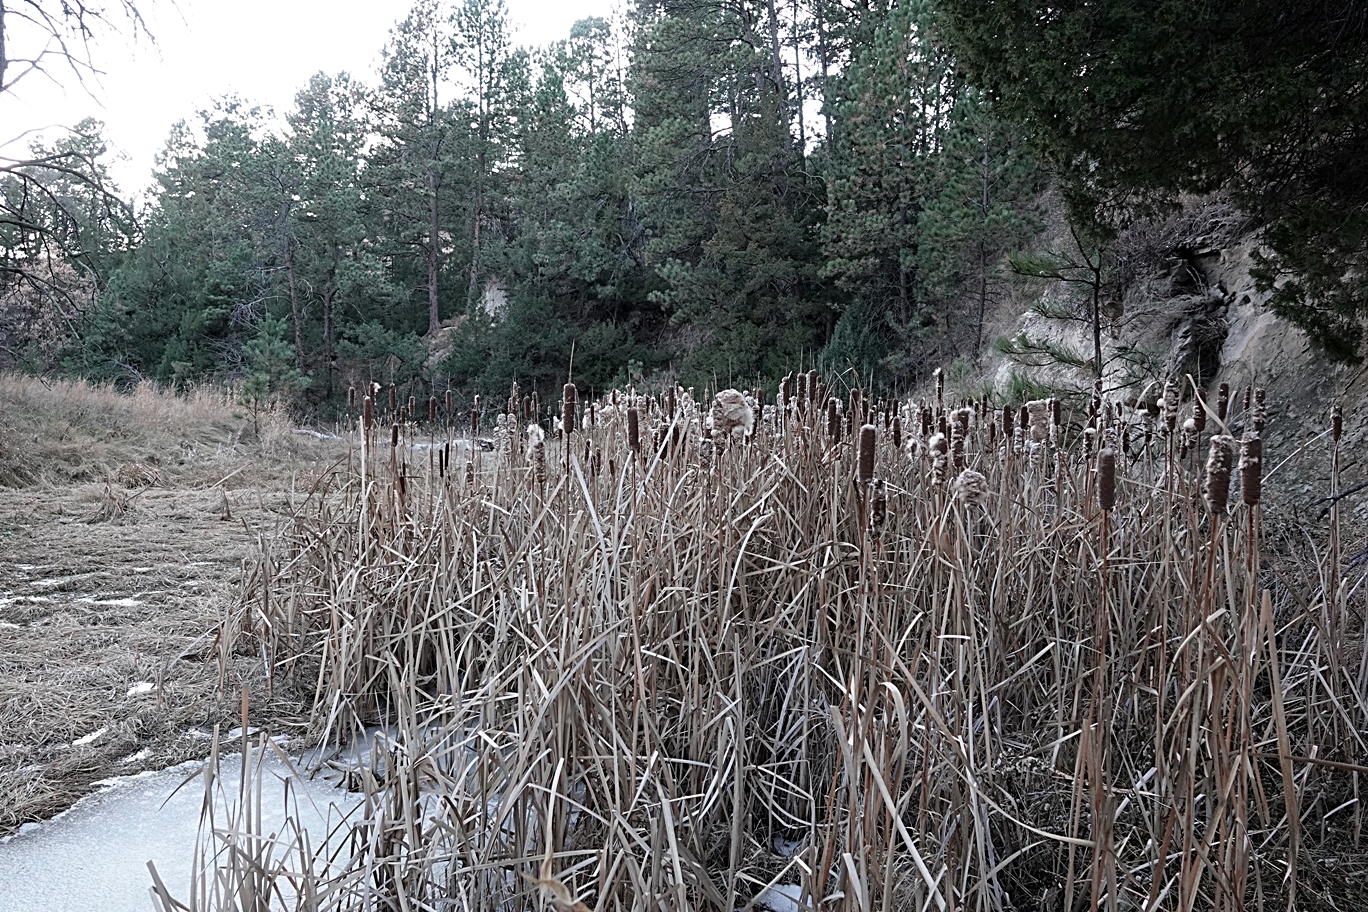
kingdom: Plantae
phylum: Tracheophyta
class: Liliopsida
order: Poales
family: Typhaceae
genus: Typha
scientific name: Typha latifolia
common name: Broadleaf cattail
